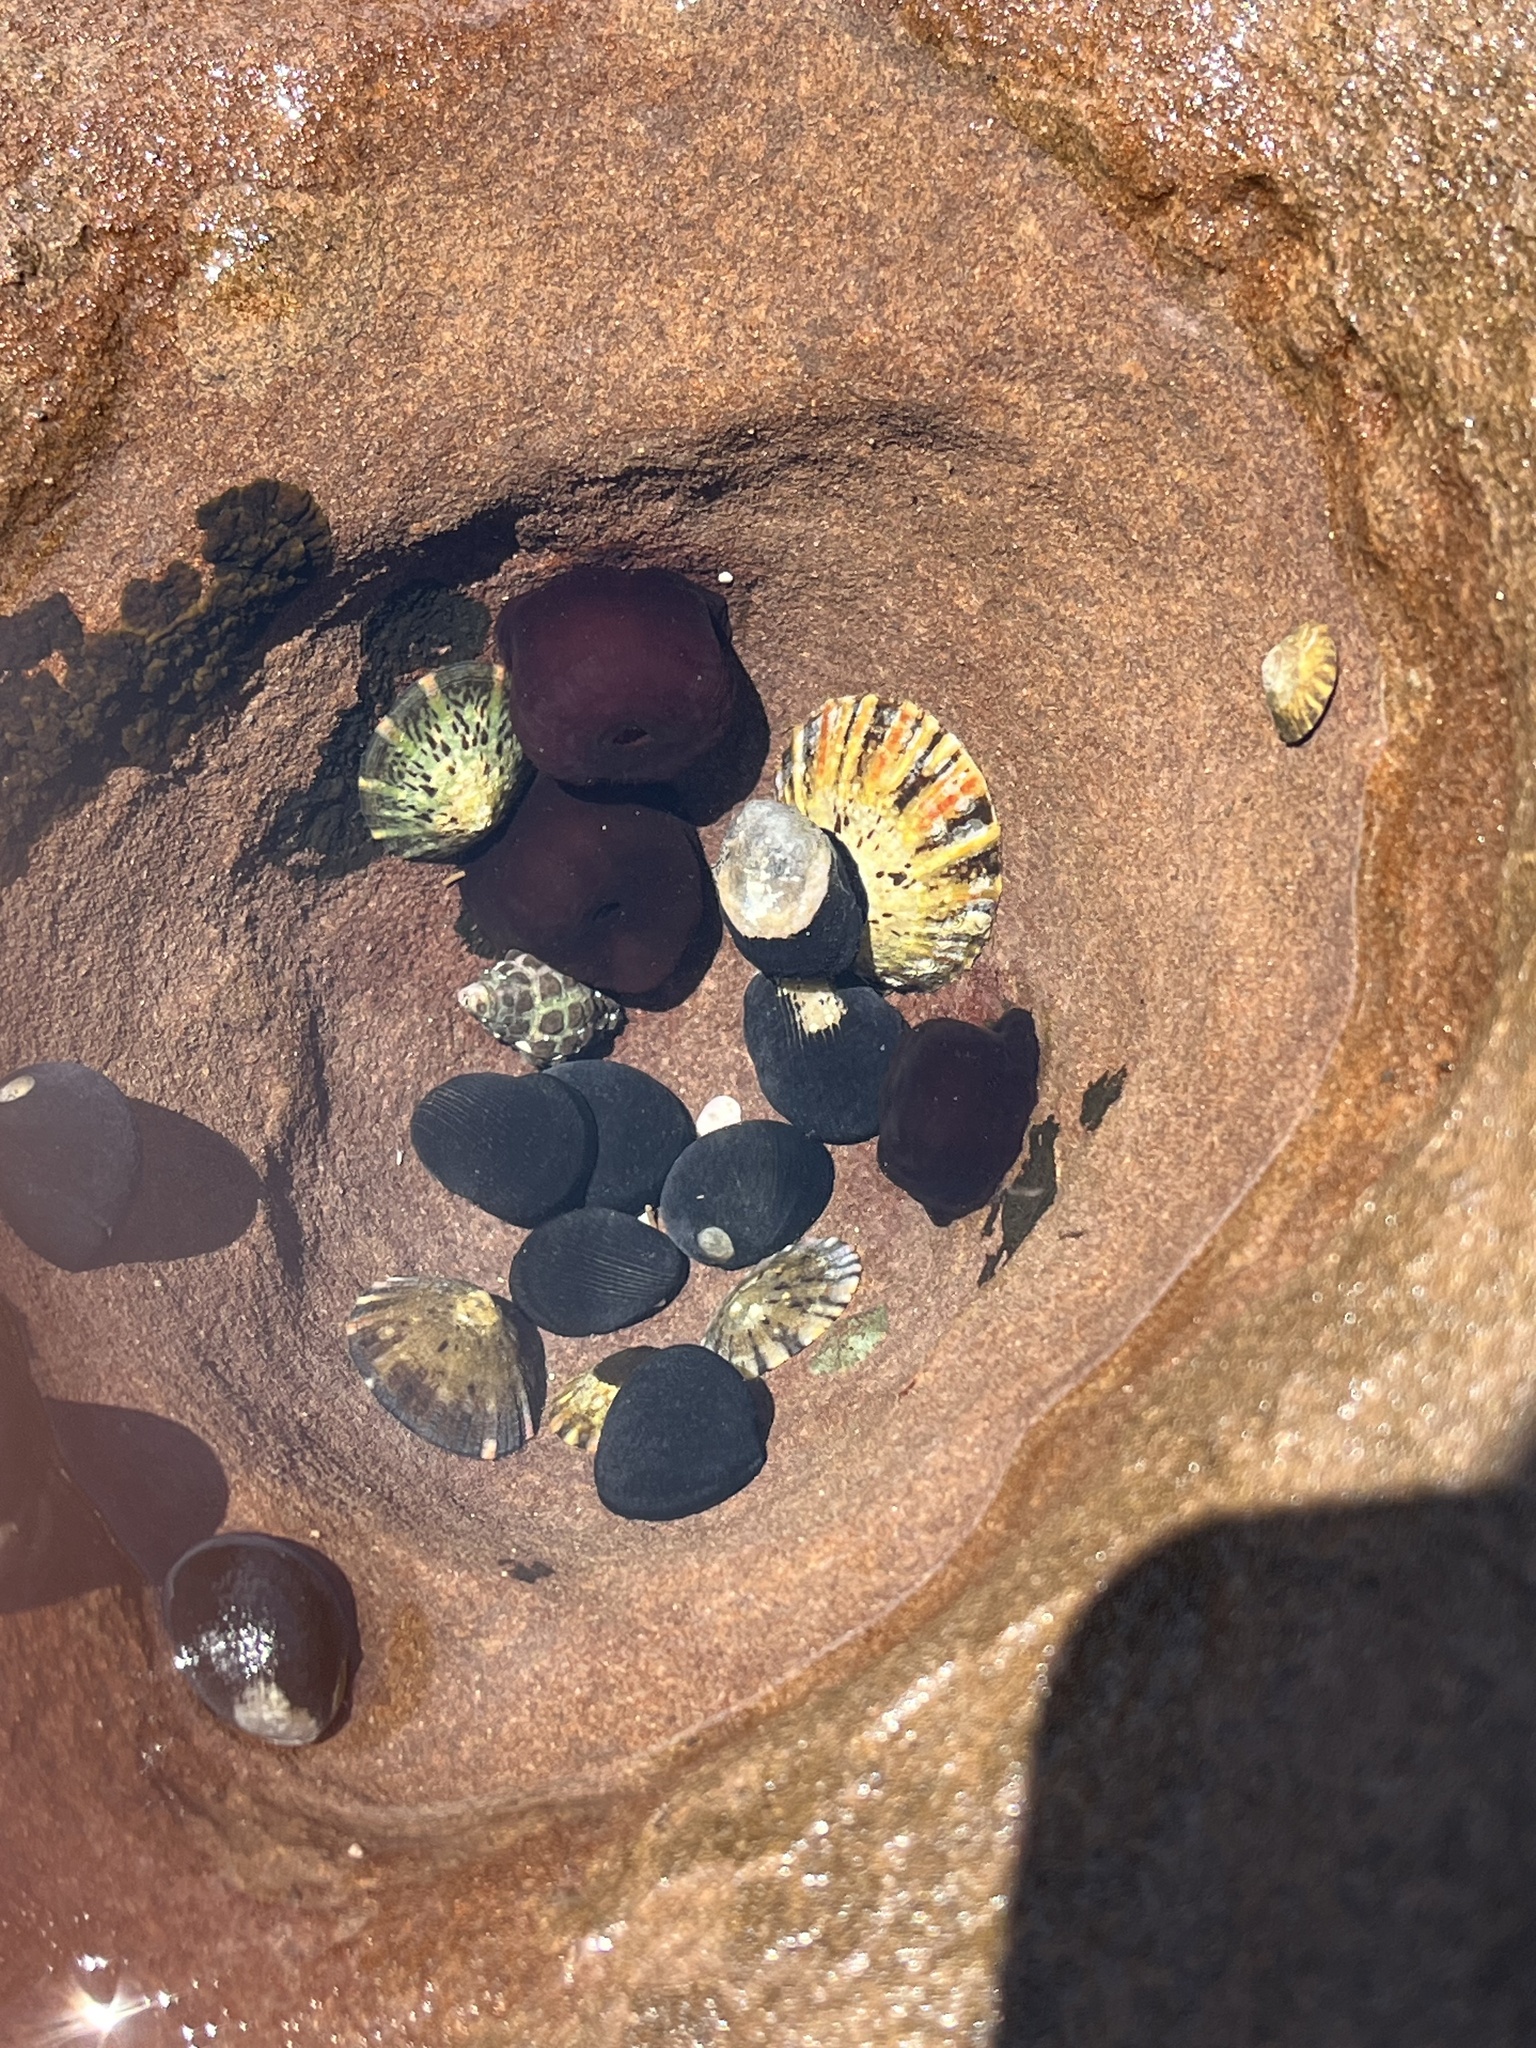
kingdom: Animalia
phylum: Cnidaria
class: Anthozoa
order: Actiniaria
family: Actiniidae
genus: Actinia
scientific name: Actinia tenebrosa
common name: Waratah anemone
